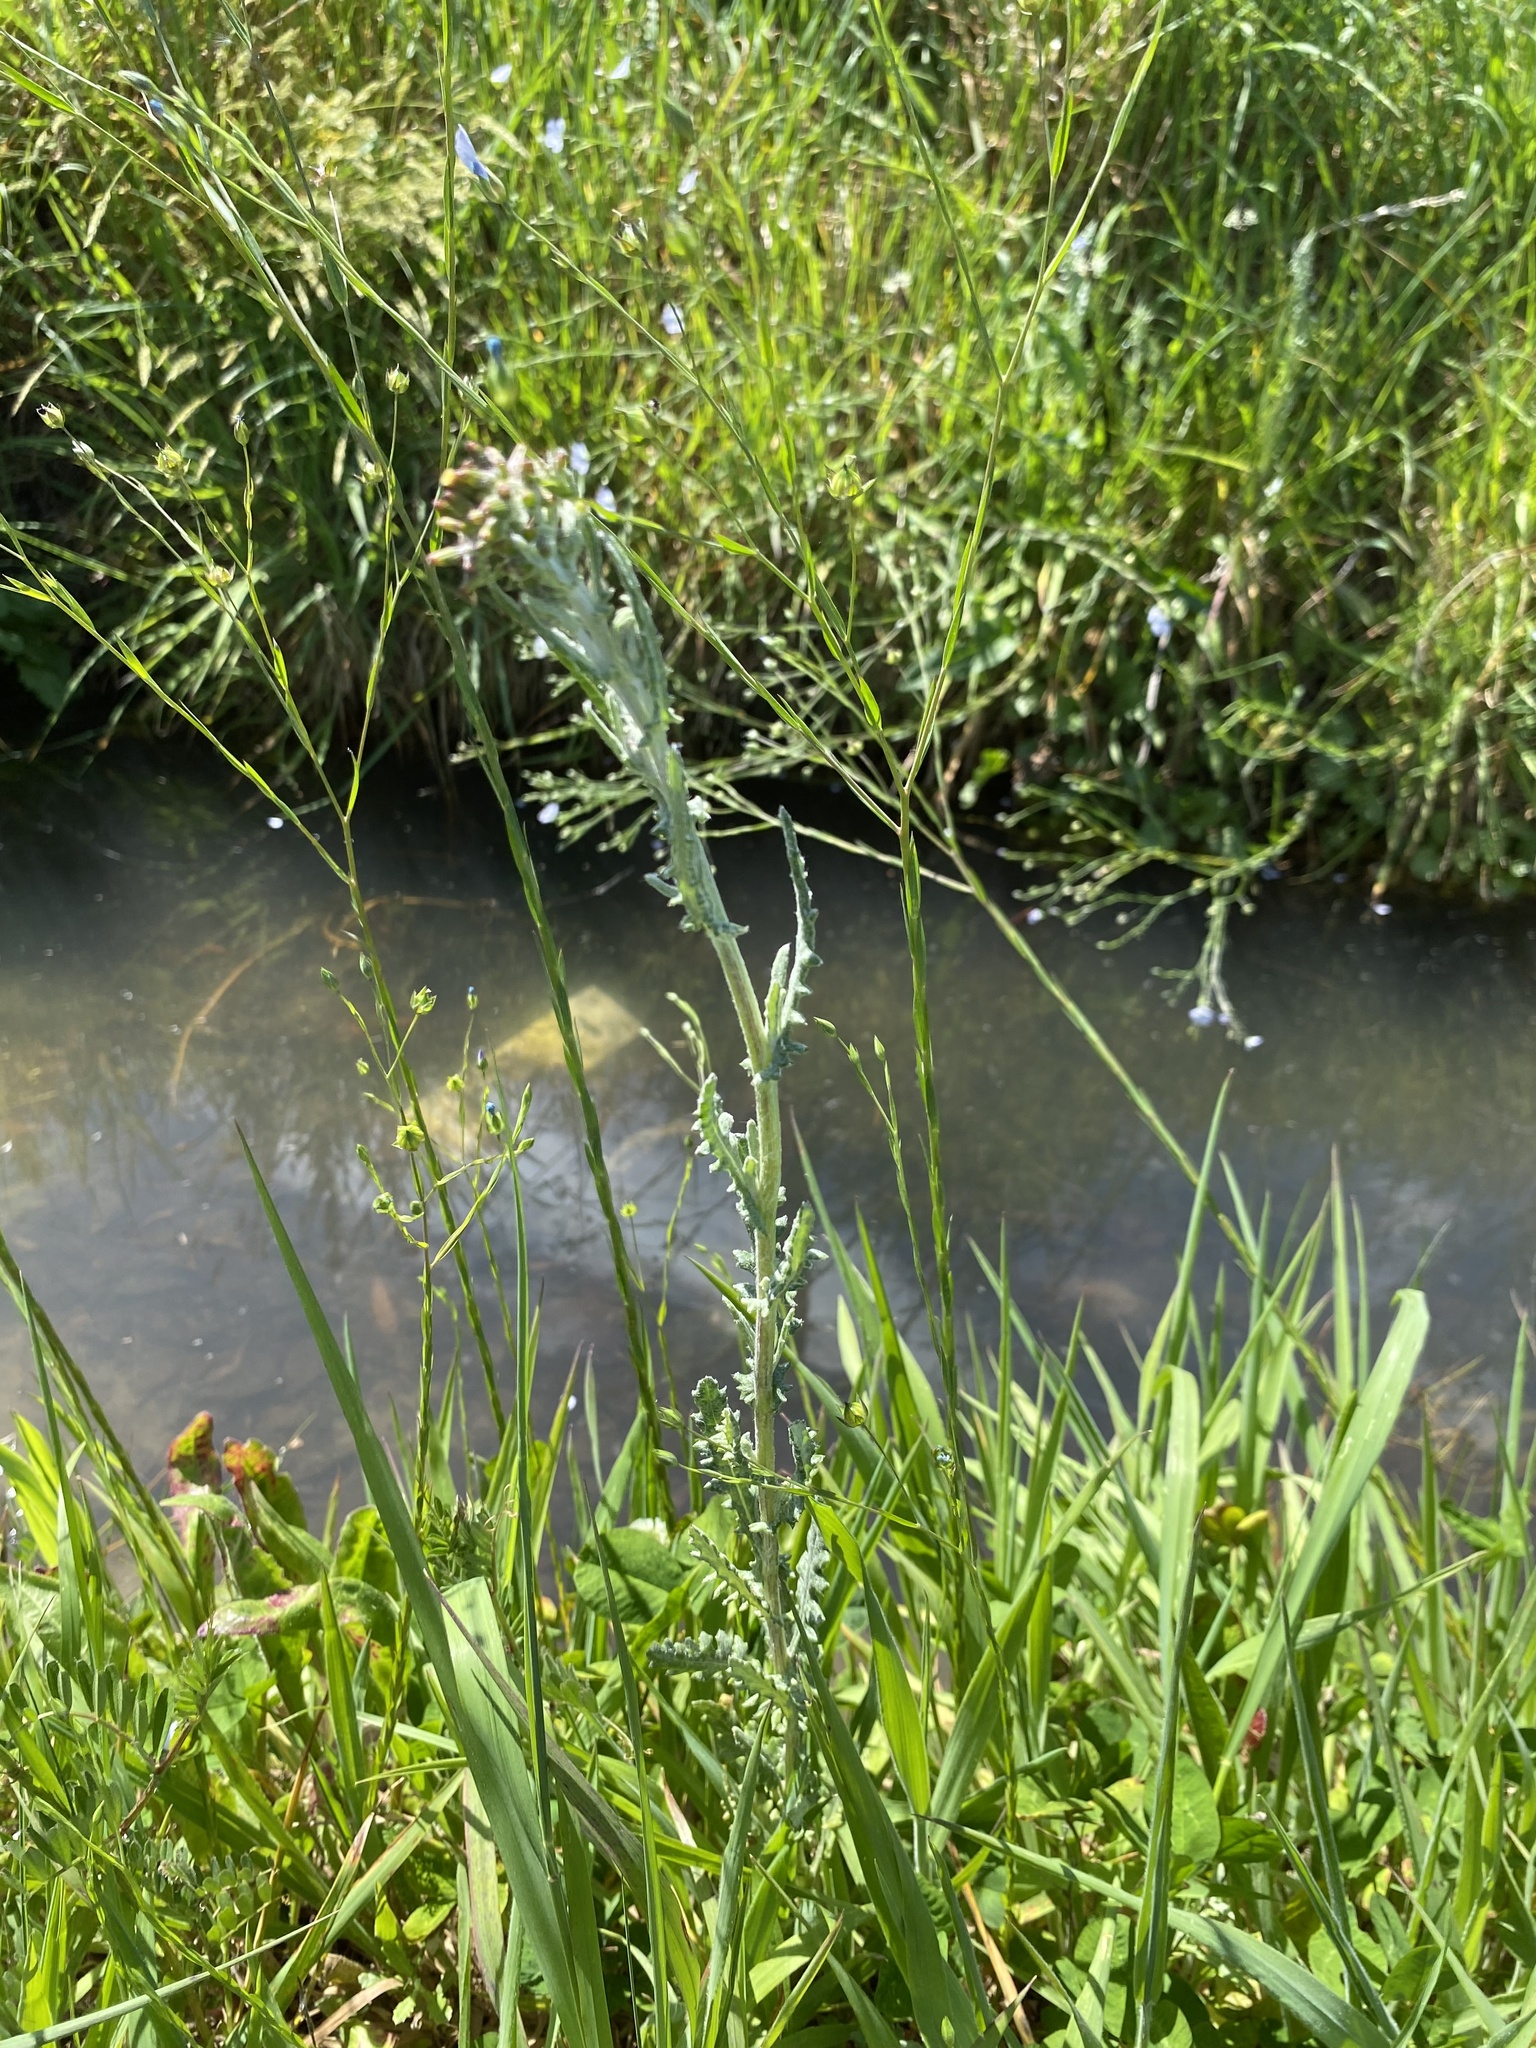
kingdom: Plantae
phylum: Tracheophyta
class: Magnoliopsida
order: Asterales
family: Asteraceae
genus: Senecio
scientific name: Senecio glomeratus
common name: Cutleaf burnweed
